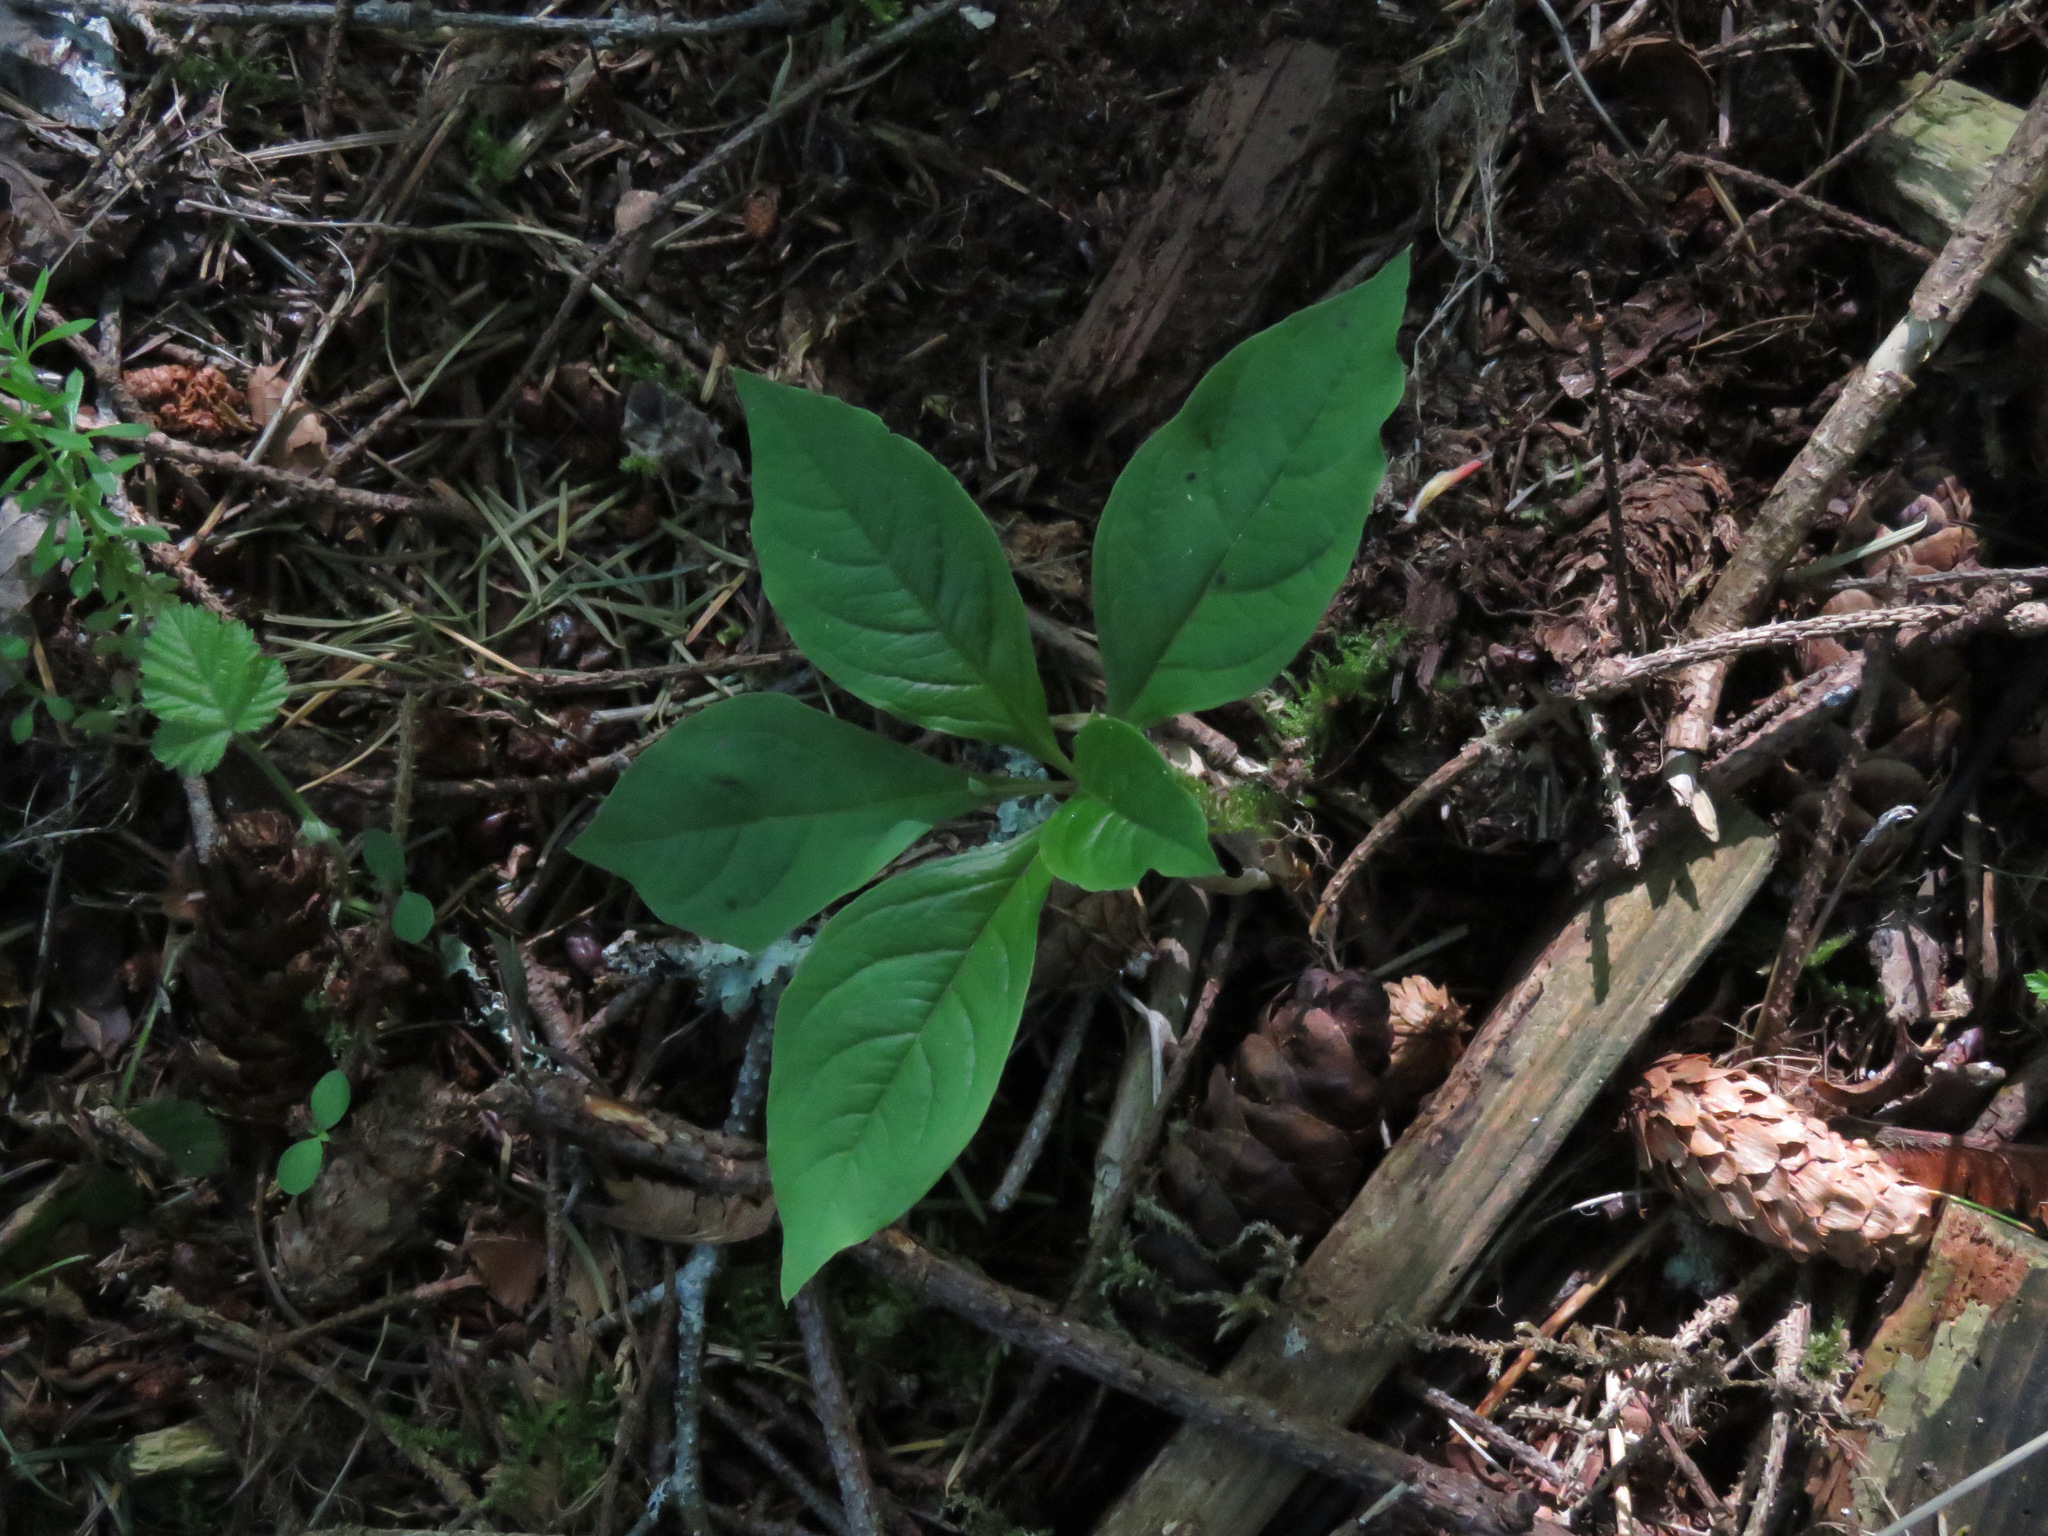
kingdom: Plantae
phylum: Tracheophyta
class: Magnoliopsida
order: Ericales
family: Primulaceae
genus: Lysimachia
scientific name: Lysimachia latifolia
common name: Pacific starflower
